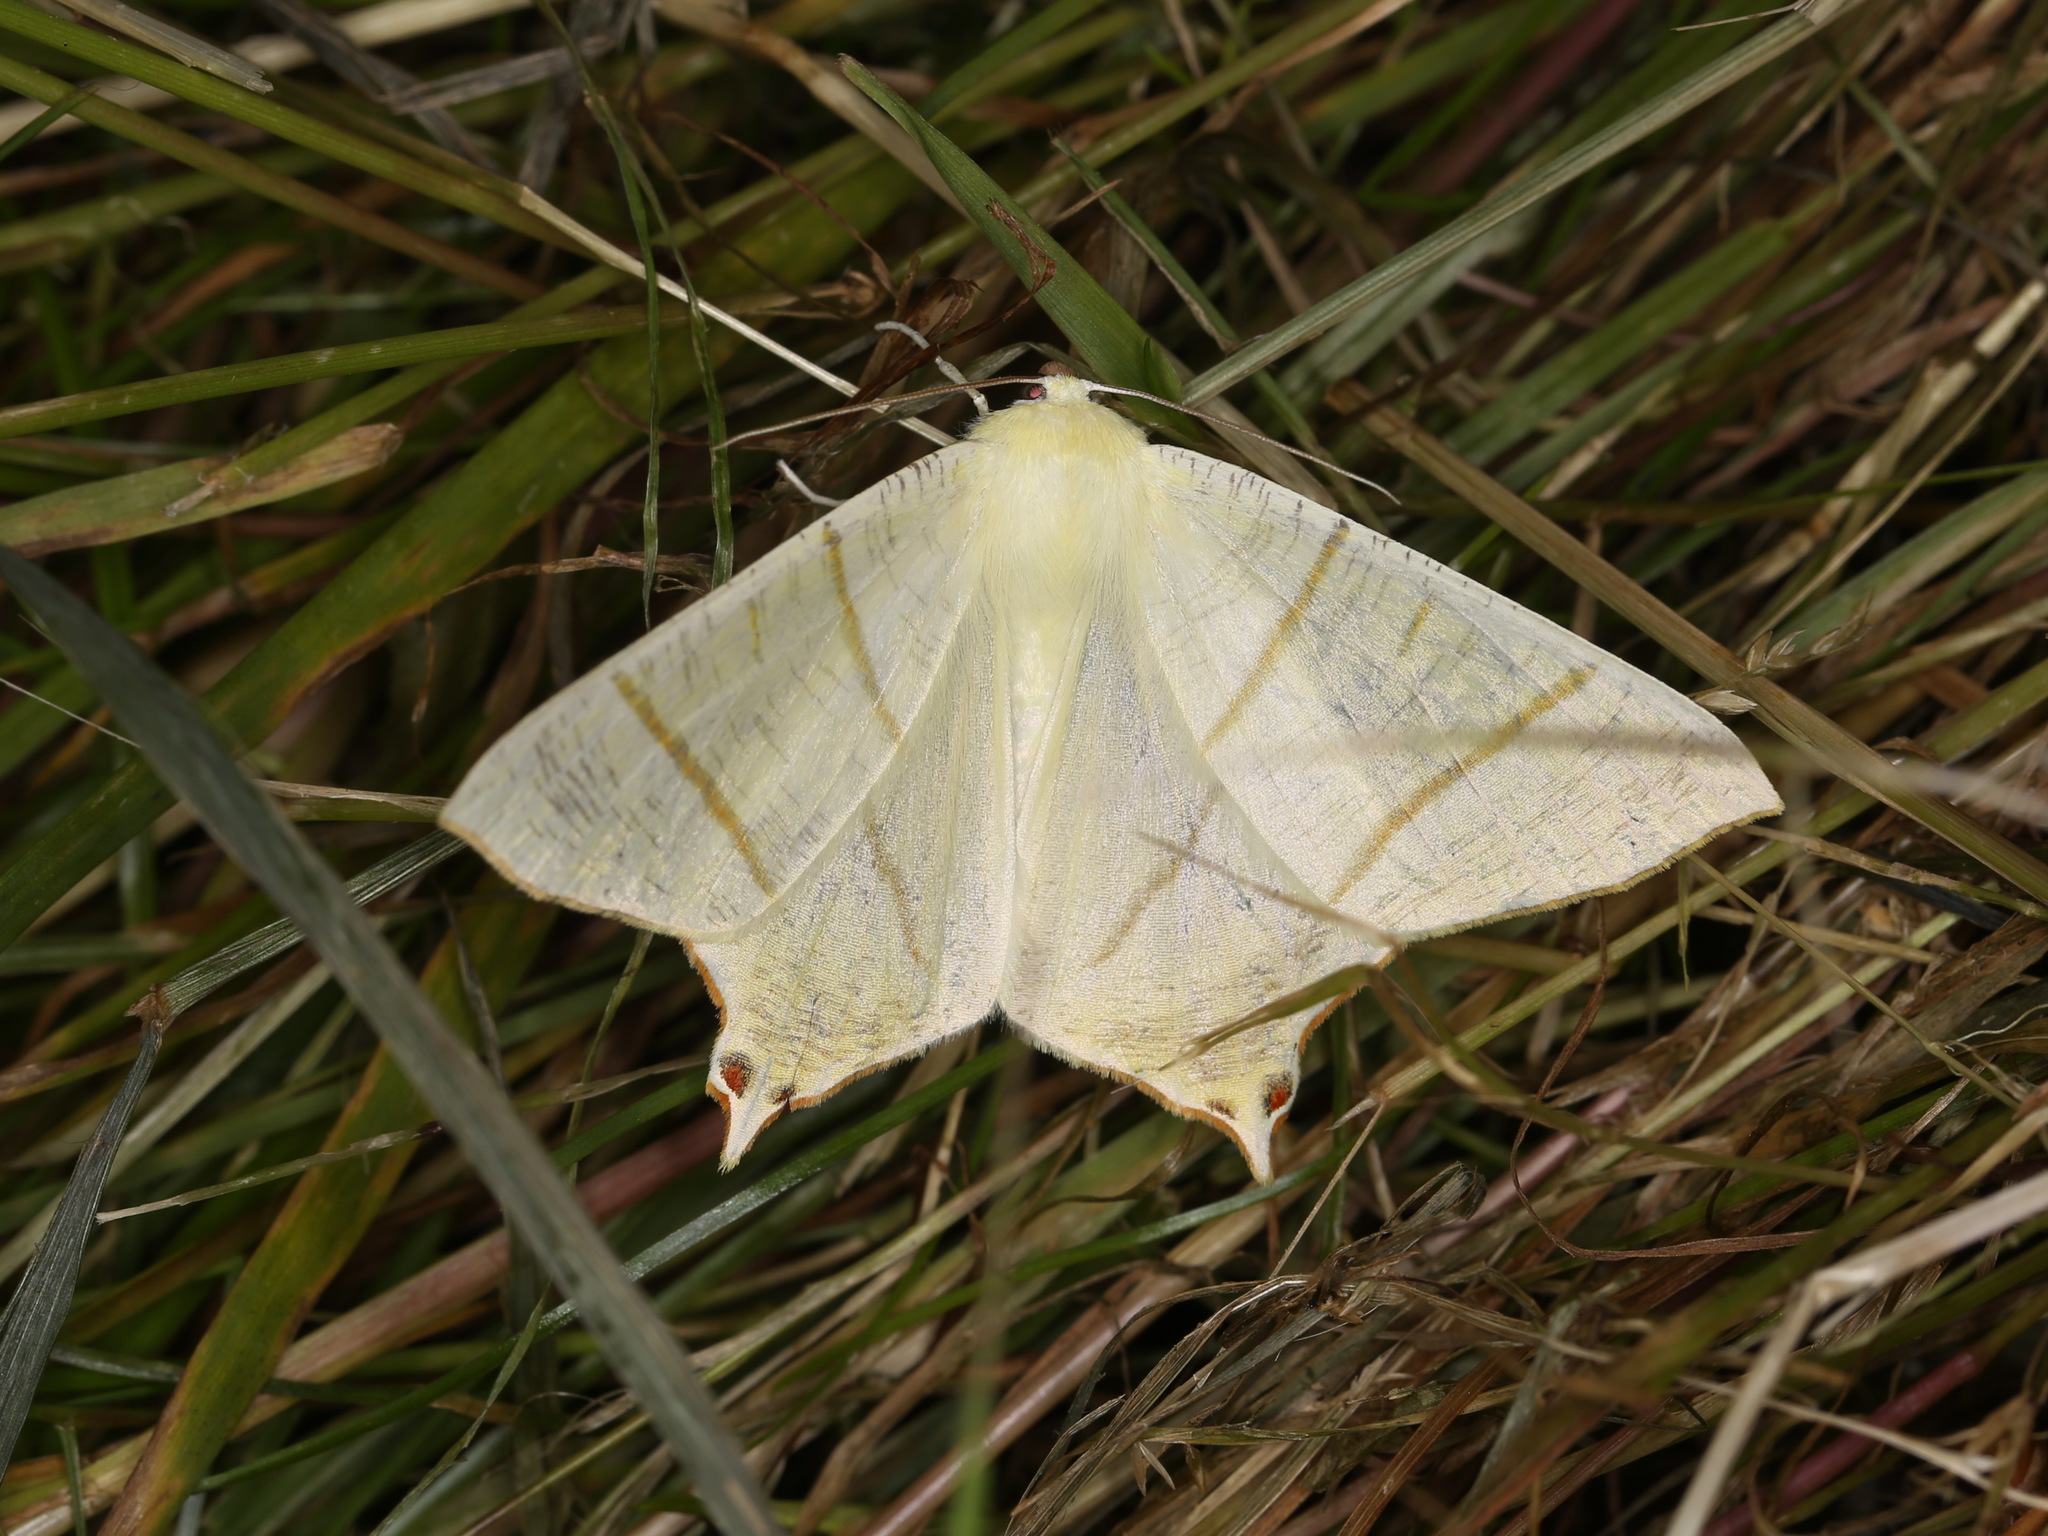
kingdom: Animalia
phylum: Arthropoda
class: Insecta
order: Lepidoptera
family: Geometridae
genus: Ourapteryx
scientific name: Ourapteryx sambucaria
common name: Swallow-tailed moth
